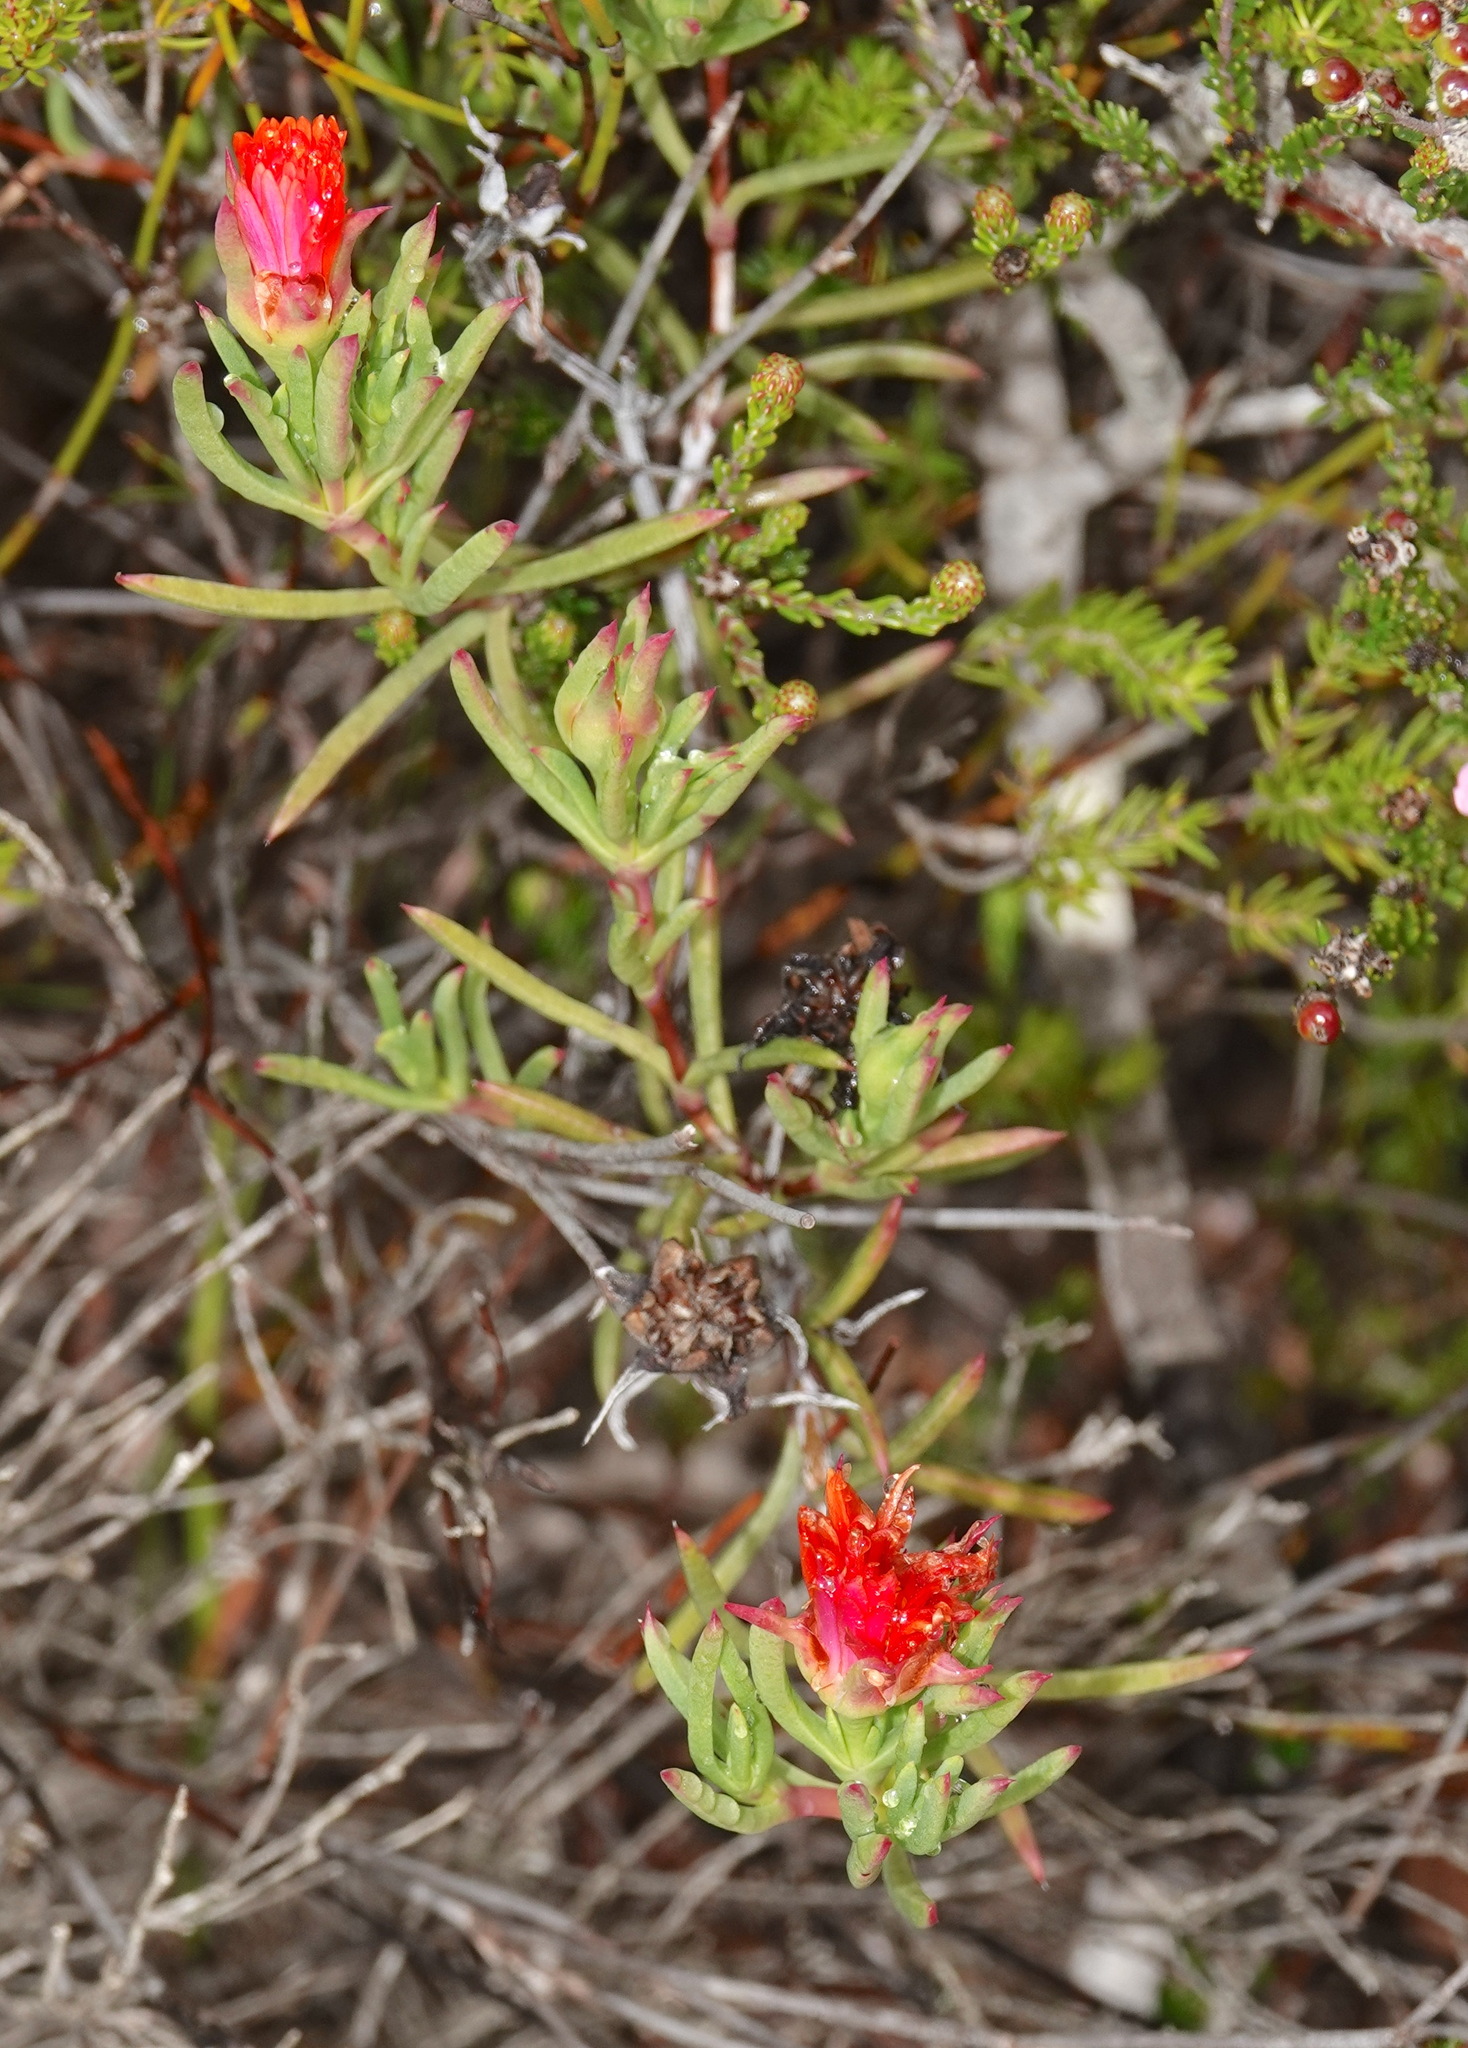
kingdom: Plantae
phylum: Tracheophyta
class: Magnoliopsida
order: Caryophyllales
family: Aizoaceae
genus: Lampranthus
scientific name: Lampranthus fergusoniae
